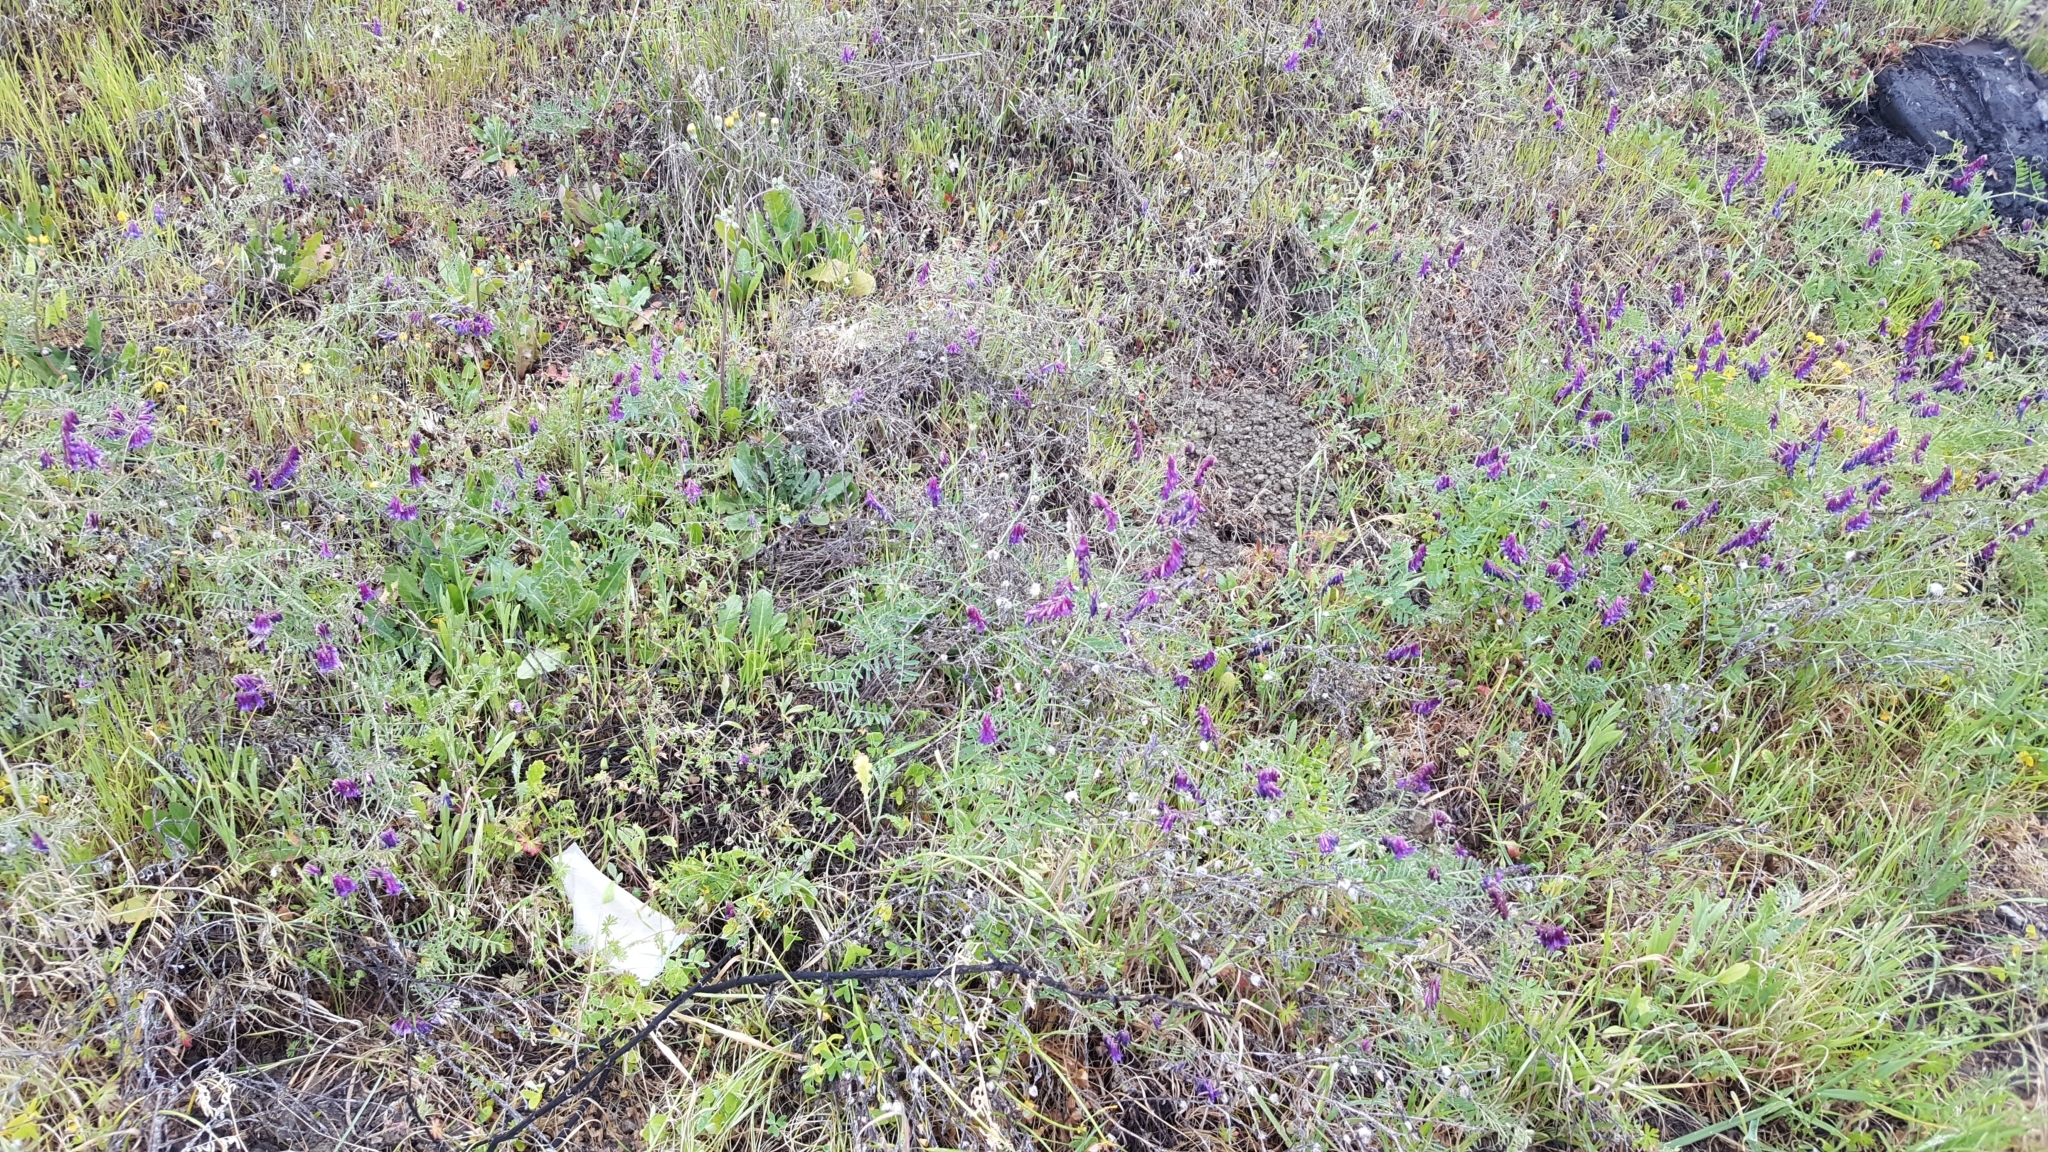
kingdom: Plantae
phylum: Tracheophyta
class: Magnoliopsida
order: Fabales
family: Fabaceae
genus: Vicia
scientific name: Vicia villosa
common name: Fodder vetch
